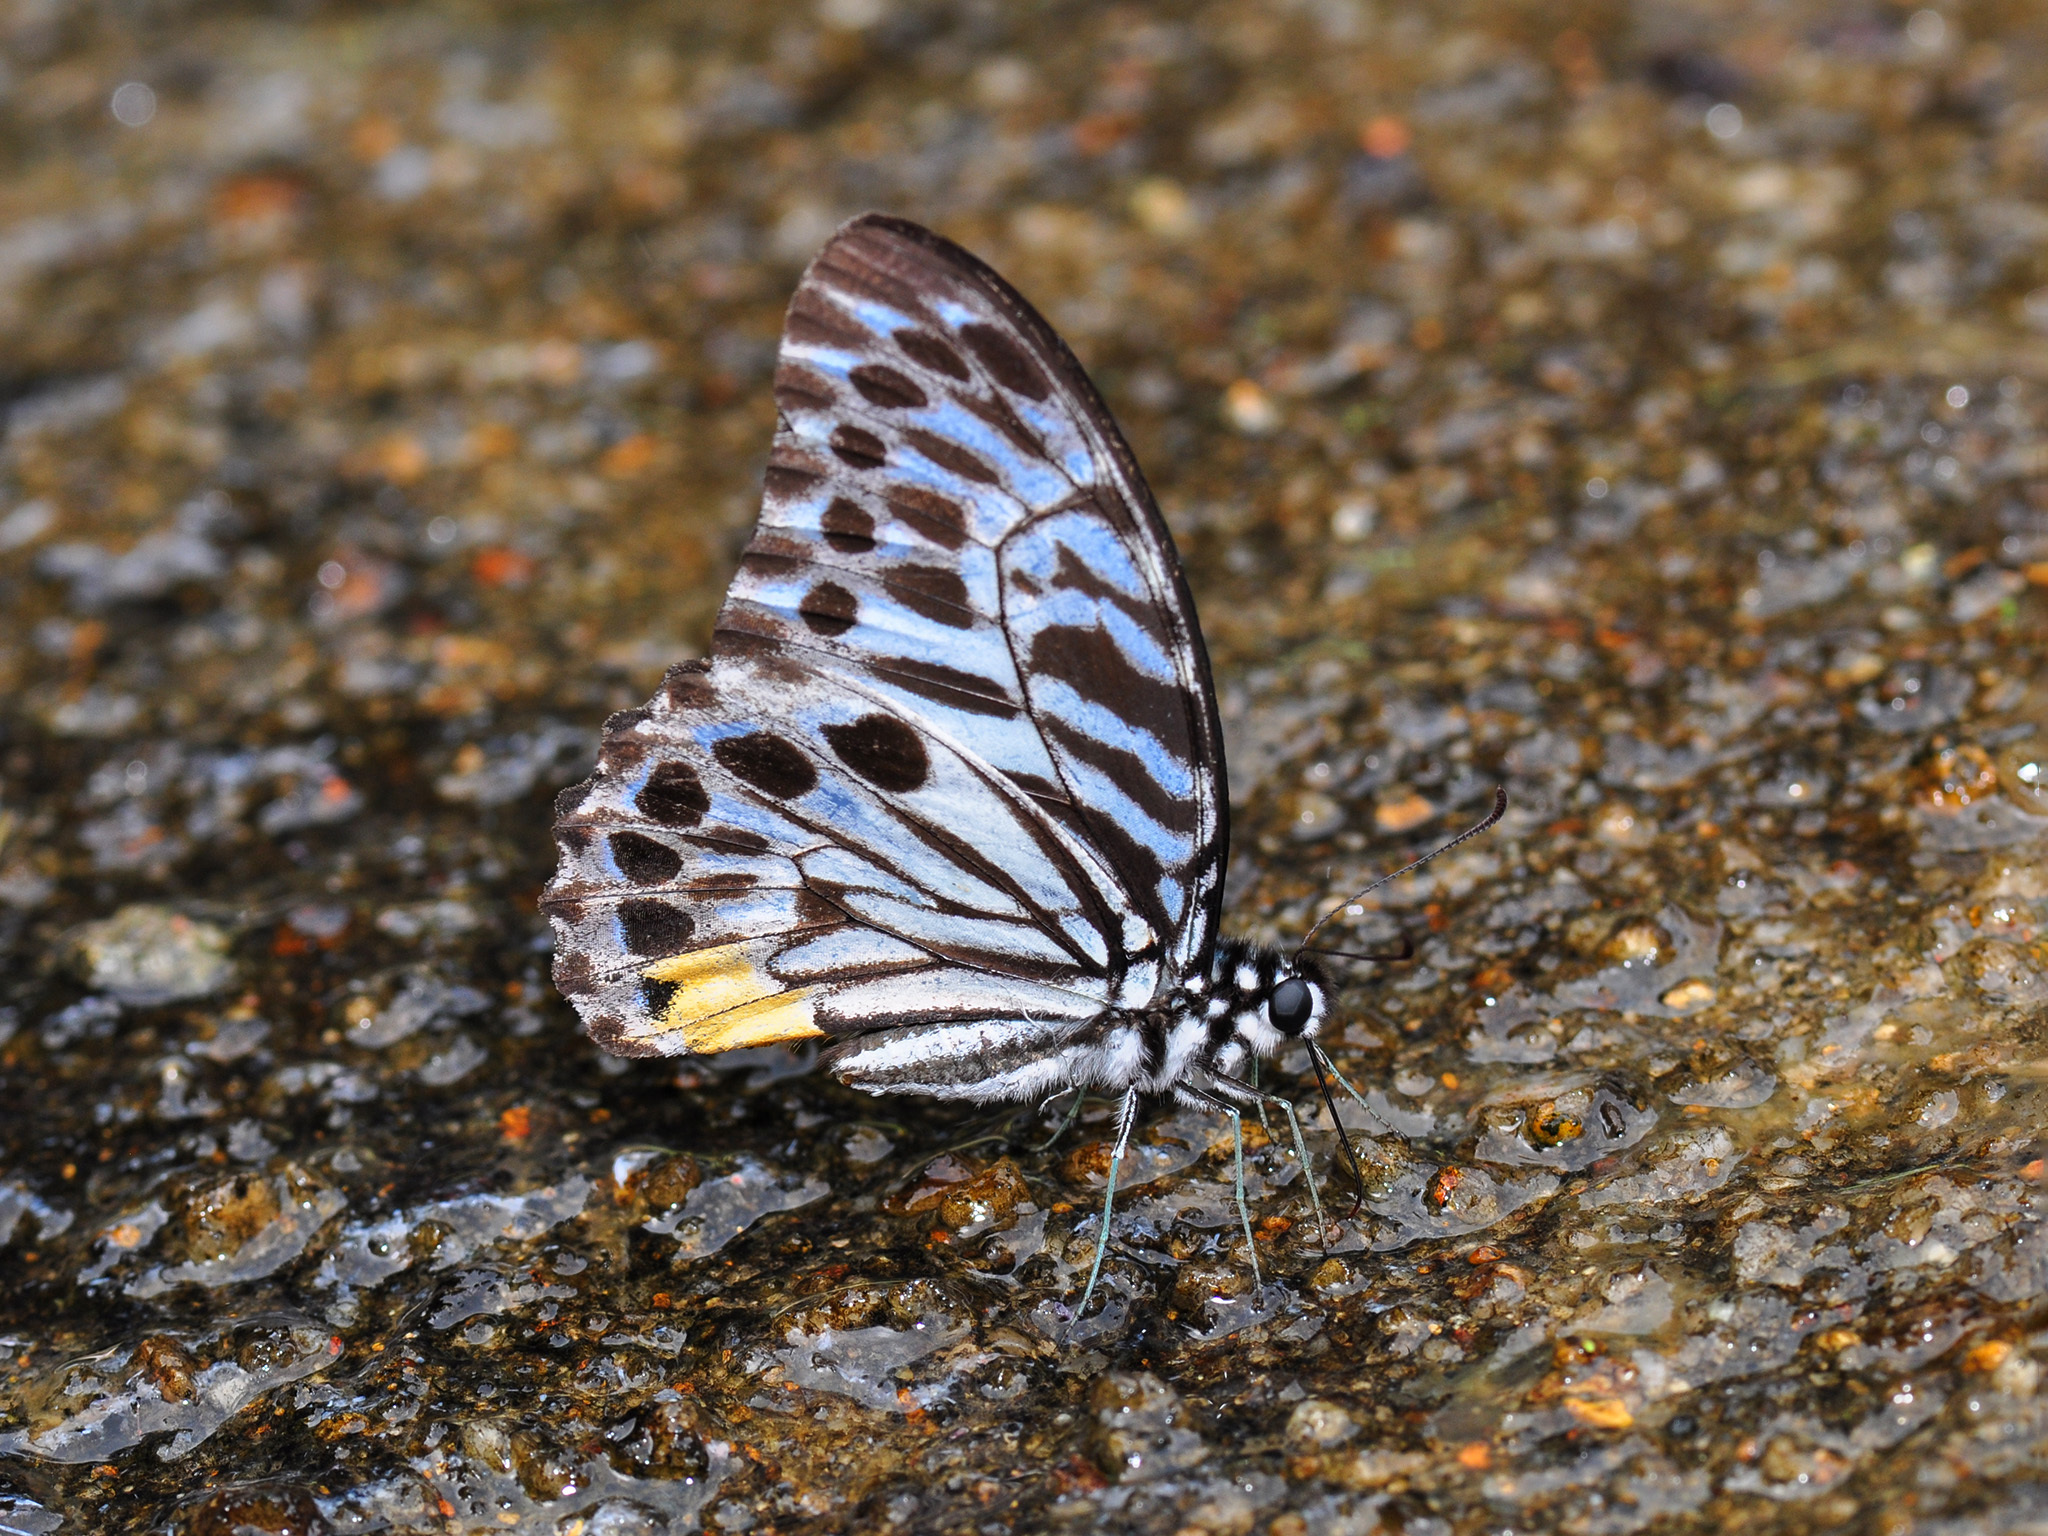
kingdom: Animalia
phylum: Arthropoda
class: Insecta
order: Lepidoptera
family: Papilionidae
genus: Graphium
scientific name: Graphium delesserti
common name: Malayan zebra
